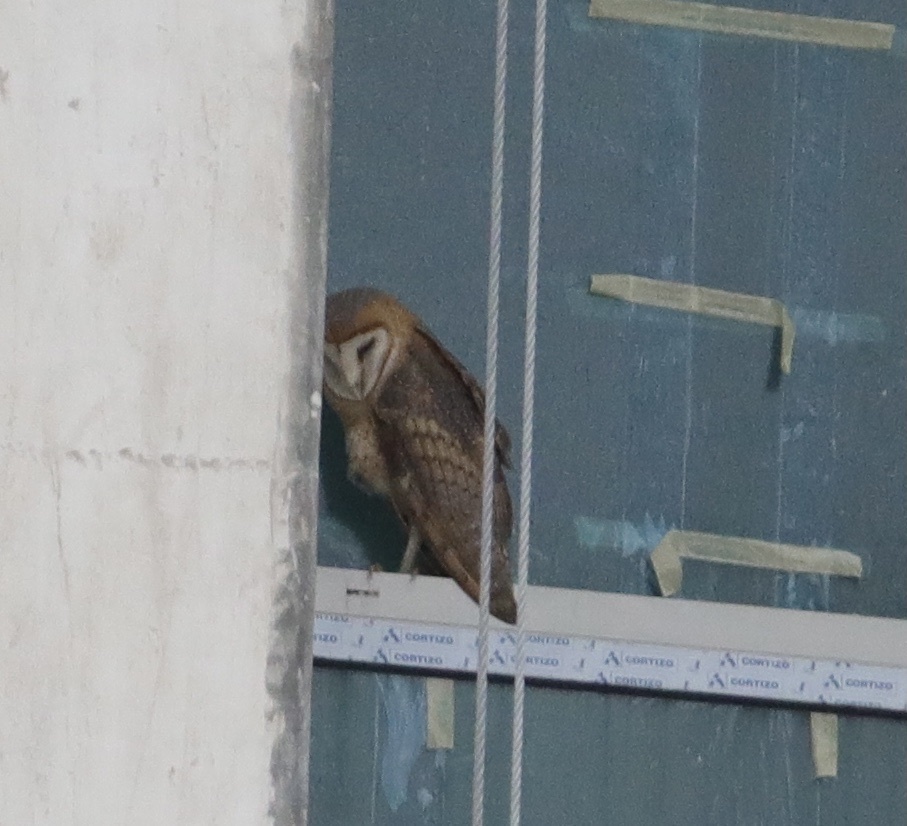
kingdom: Animalia
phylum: Chordata
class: Aves
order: Strigiformes
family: Tytonidae
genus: Tyto
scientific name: Tyto alba
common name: Barn owl
